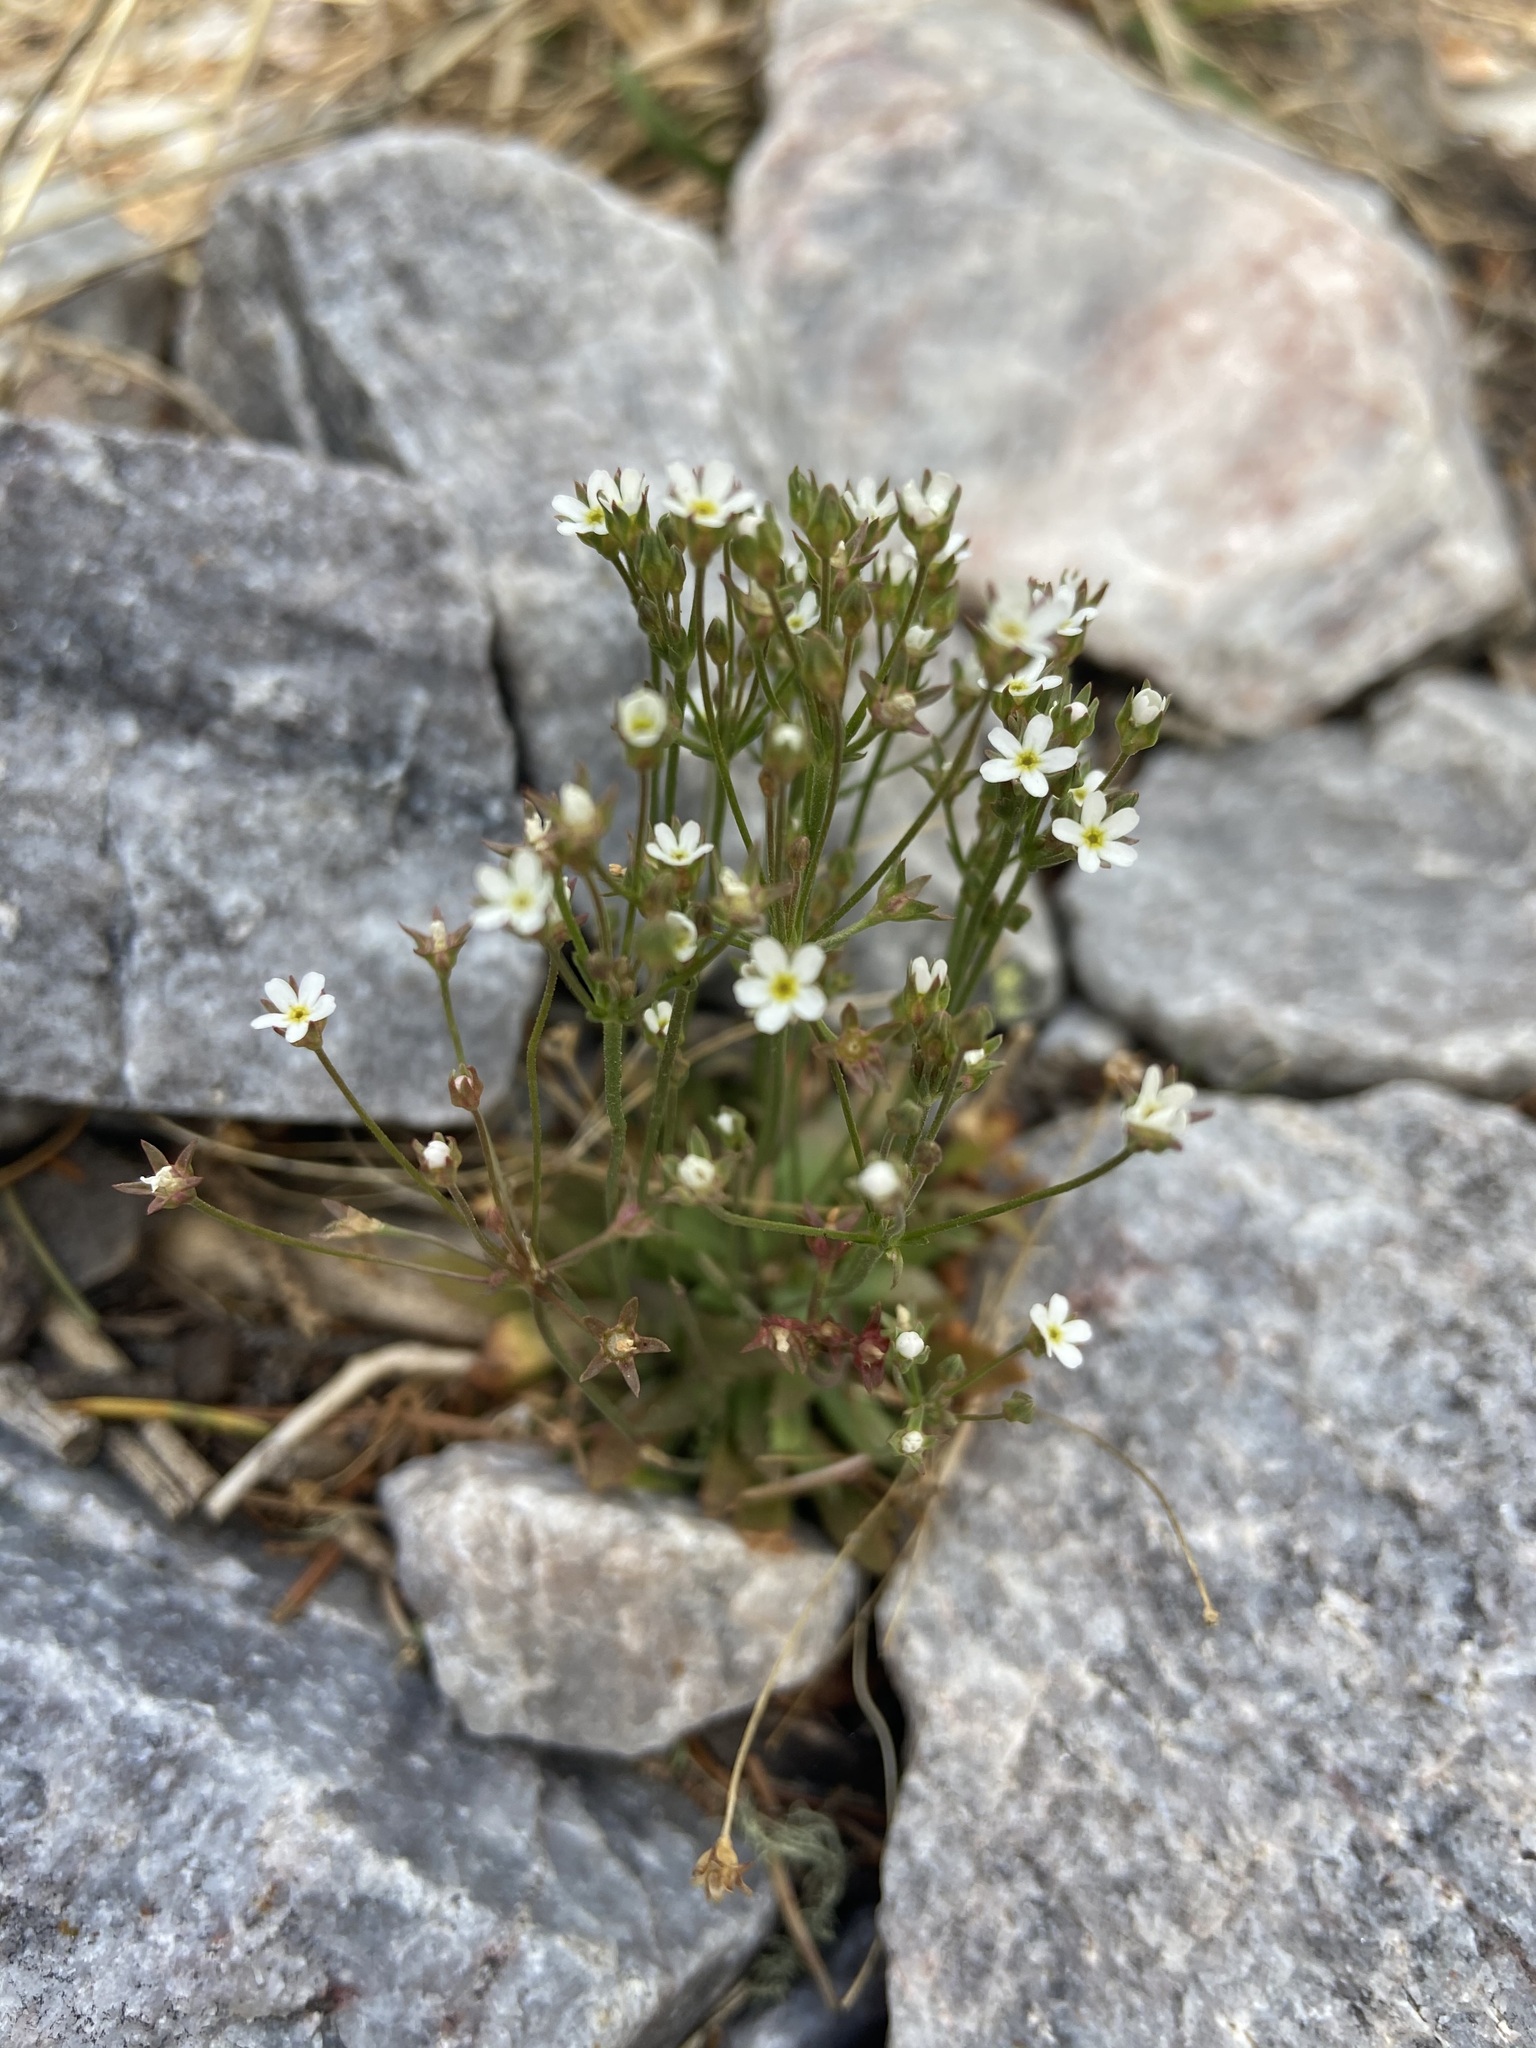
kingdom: Plantae
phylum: Tracheophyta
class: Magnoliopsida
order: Ericales
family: Primulaceae
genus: Androsace
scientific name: Androsace septentrionalis
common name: Hairy northern fairy-candelabra
